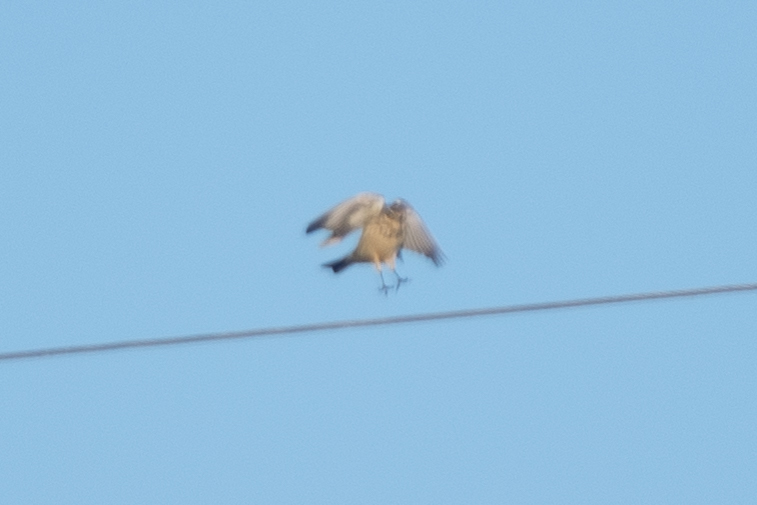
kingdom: Animalia
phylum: Chordata
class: Aves
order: Passeriformes
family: Motacillidae
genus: Anthus
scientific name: Anthus rubescens
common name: Buff-bellied pipit
